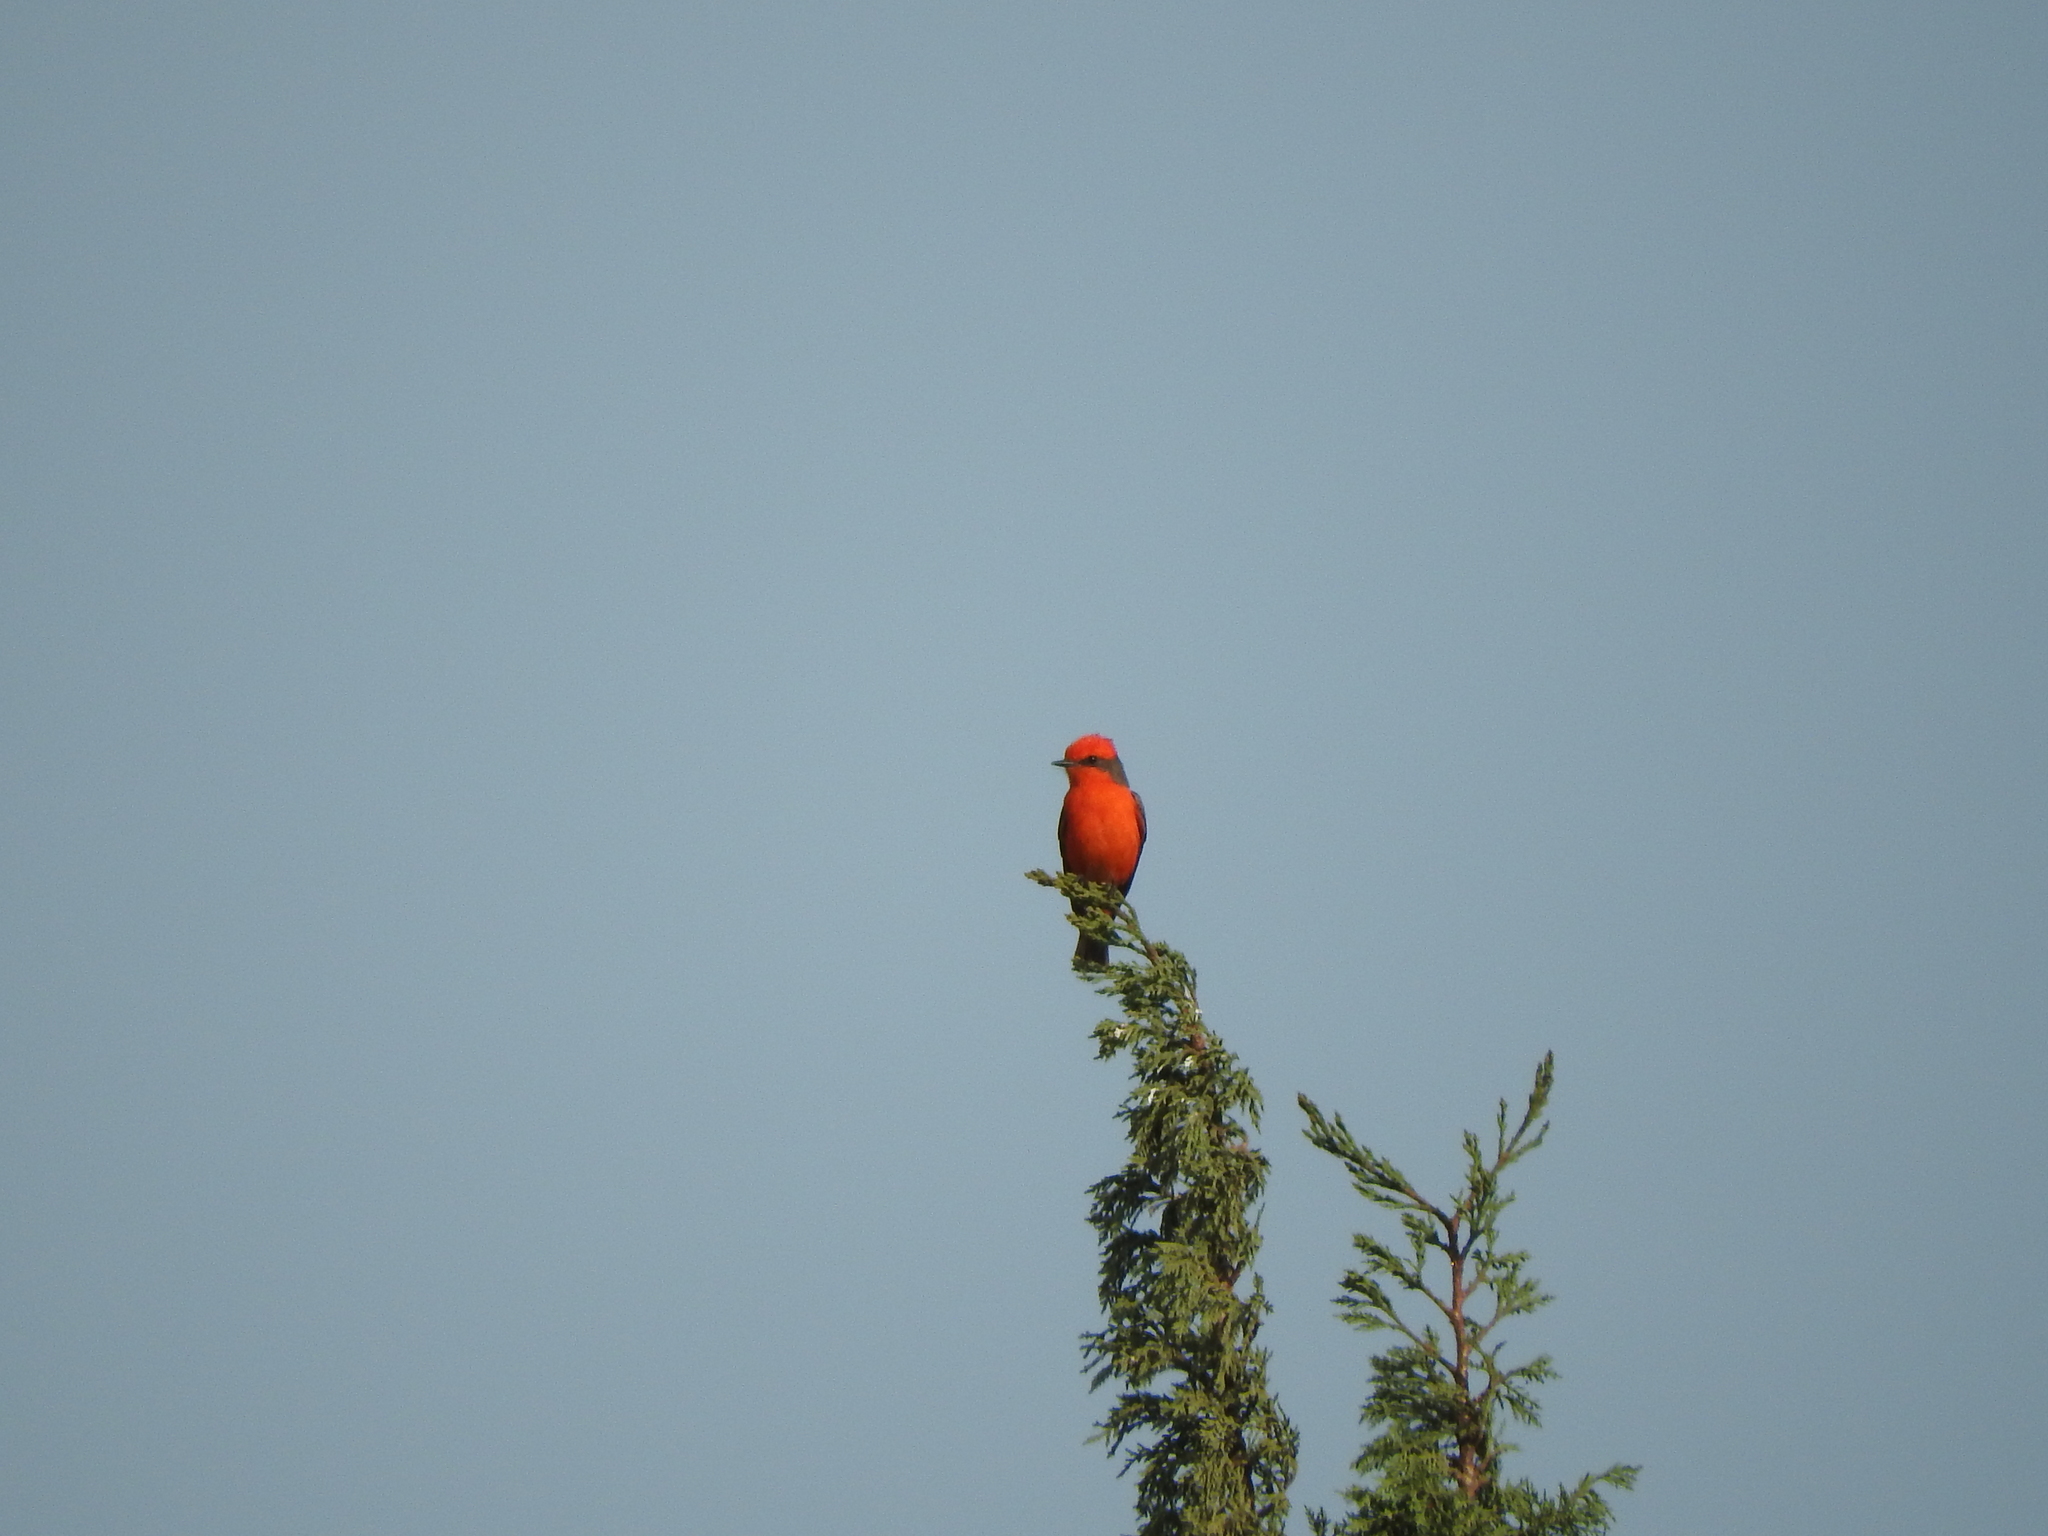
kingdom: Animalia
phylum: Chordata
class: Aves
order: Passeriformes
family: Tyrannidae
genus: Pyrocephalus
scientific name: Pyrocephalus rubinus
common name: Vermilion flycatcher
